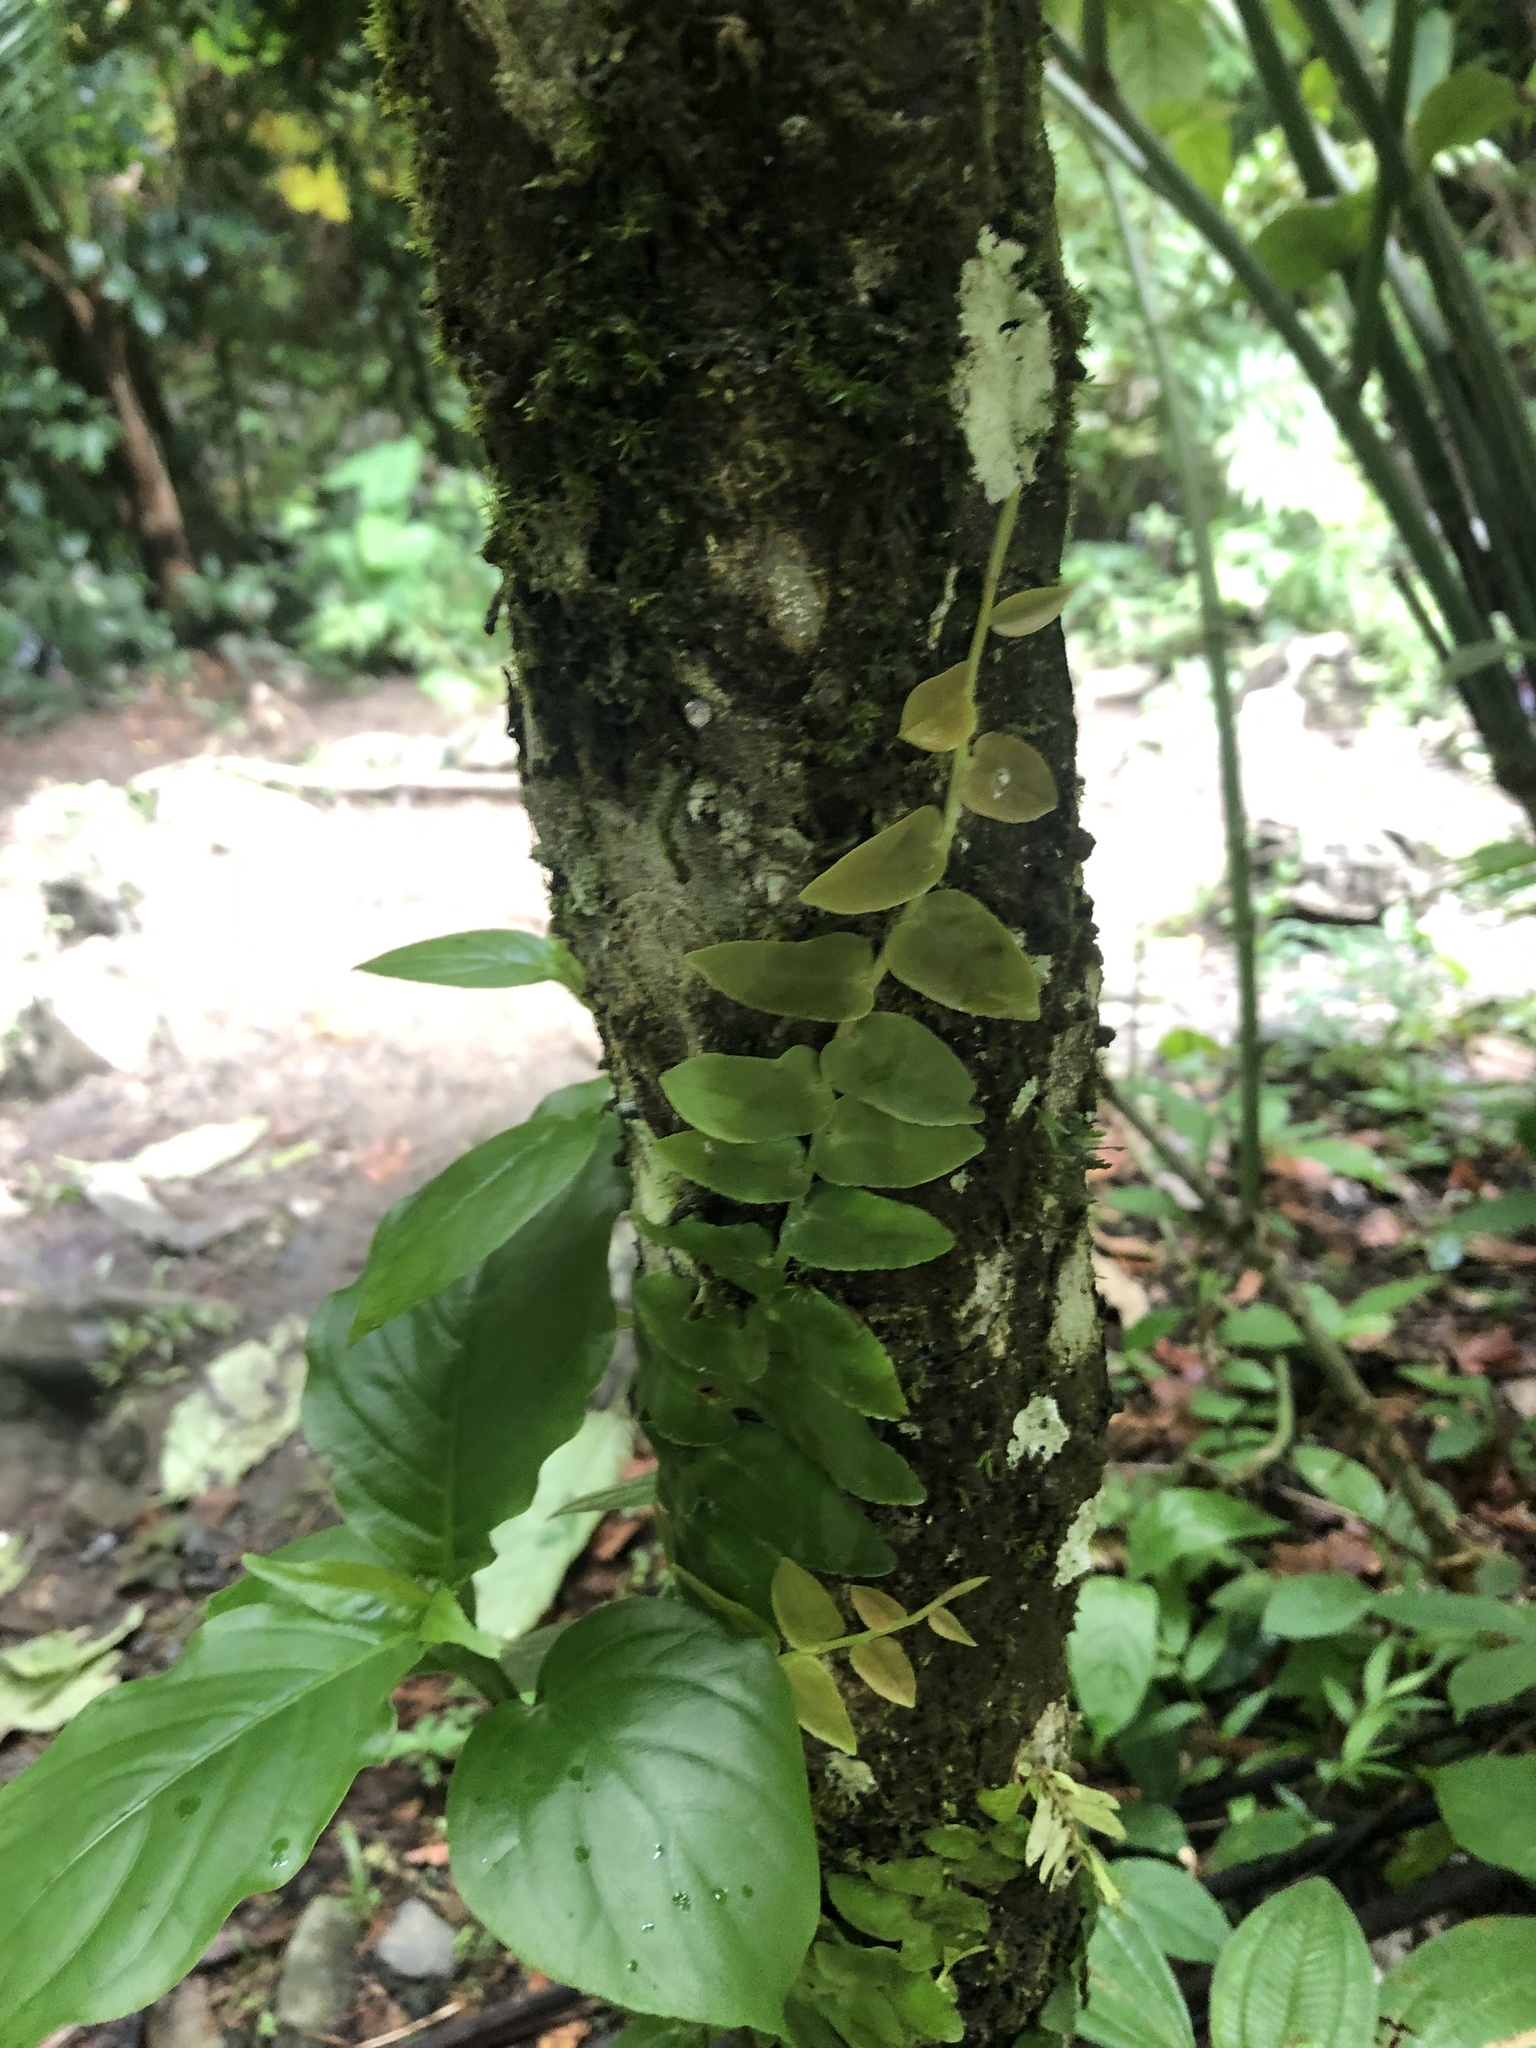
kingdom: Plantae
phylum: Tracheophyta
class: Magnoliopsida
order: Ericales
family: Marcgraviaceae
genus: Marcgravia
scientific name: Marcgravia rectiflora
